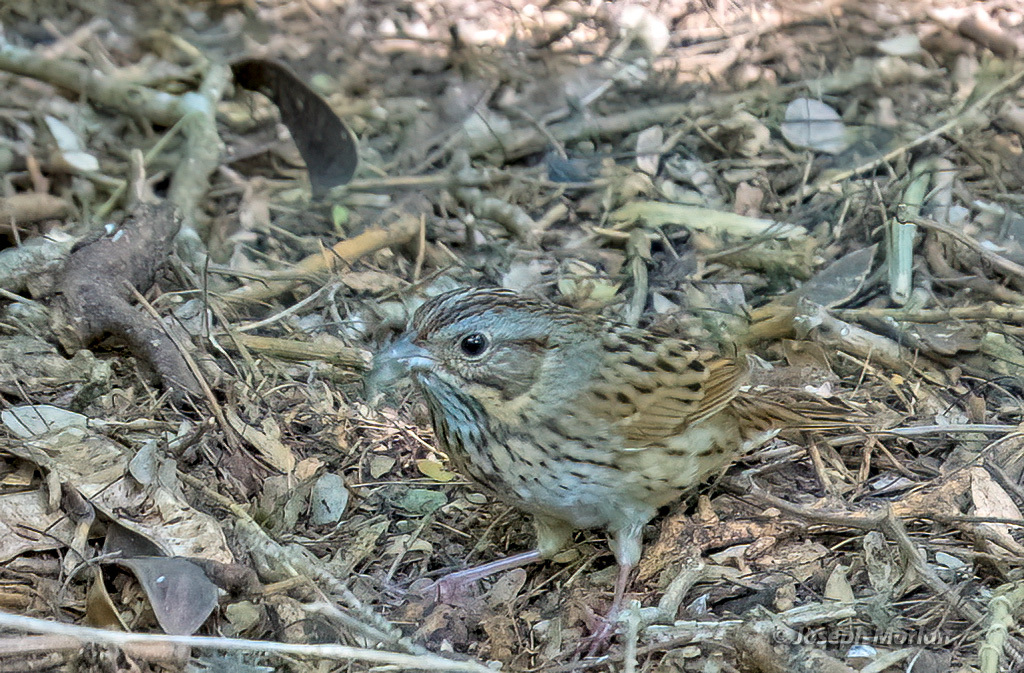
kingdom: Animalia
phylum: Chordata
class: Aves
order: Passeriformes
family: Passerellidae
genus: Melospiza
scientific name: Melospiza lincolnii
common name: Lincoln's sparrow
